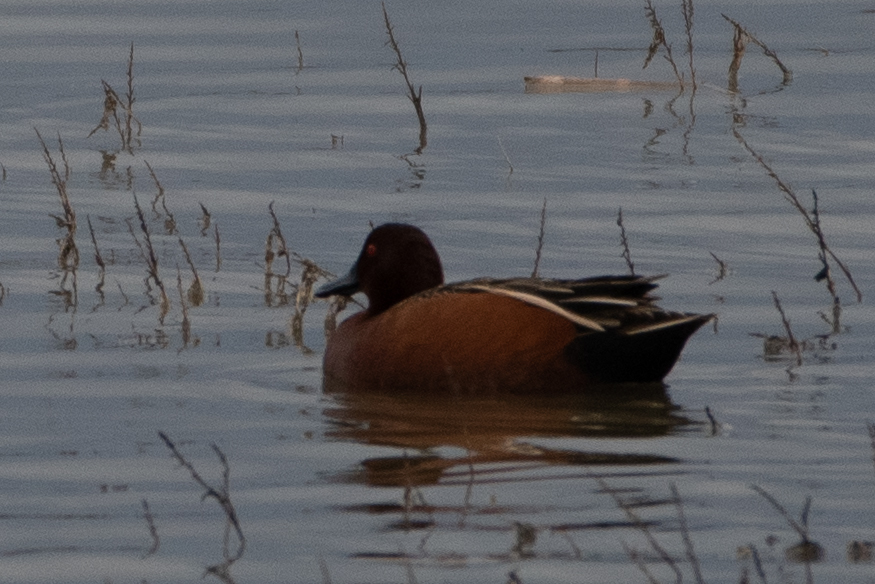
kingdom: Animalia
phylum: Chordata
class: Aves
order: Anseriformes
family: Anatidae
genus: Spatula
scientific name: Spatula cyanoptera
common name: Cinnamon teal
